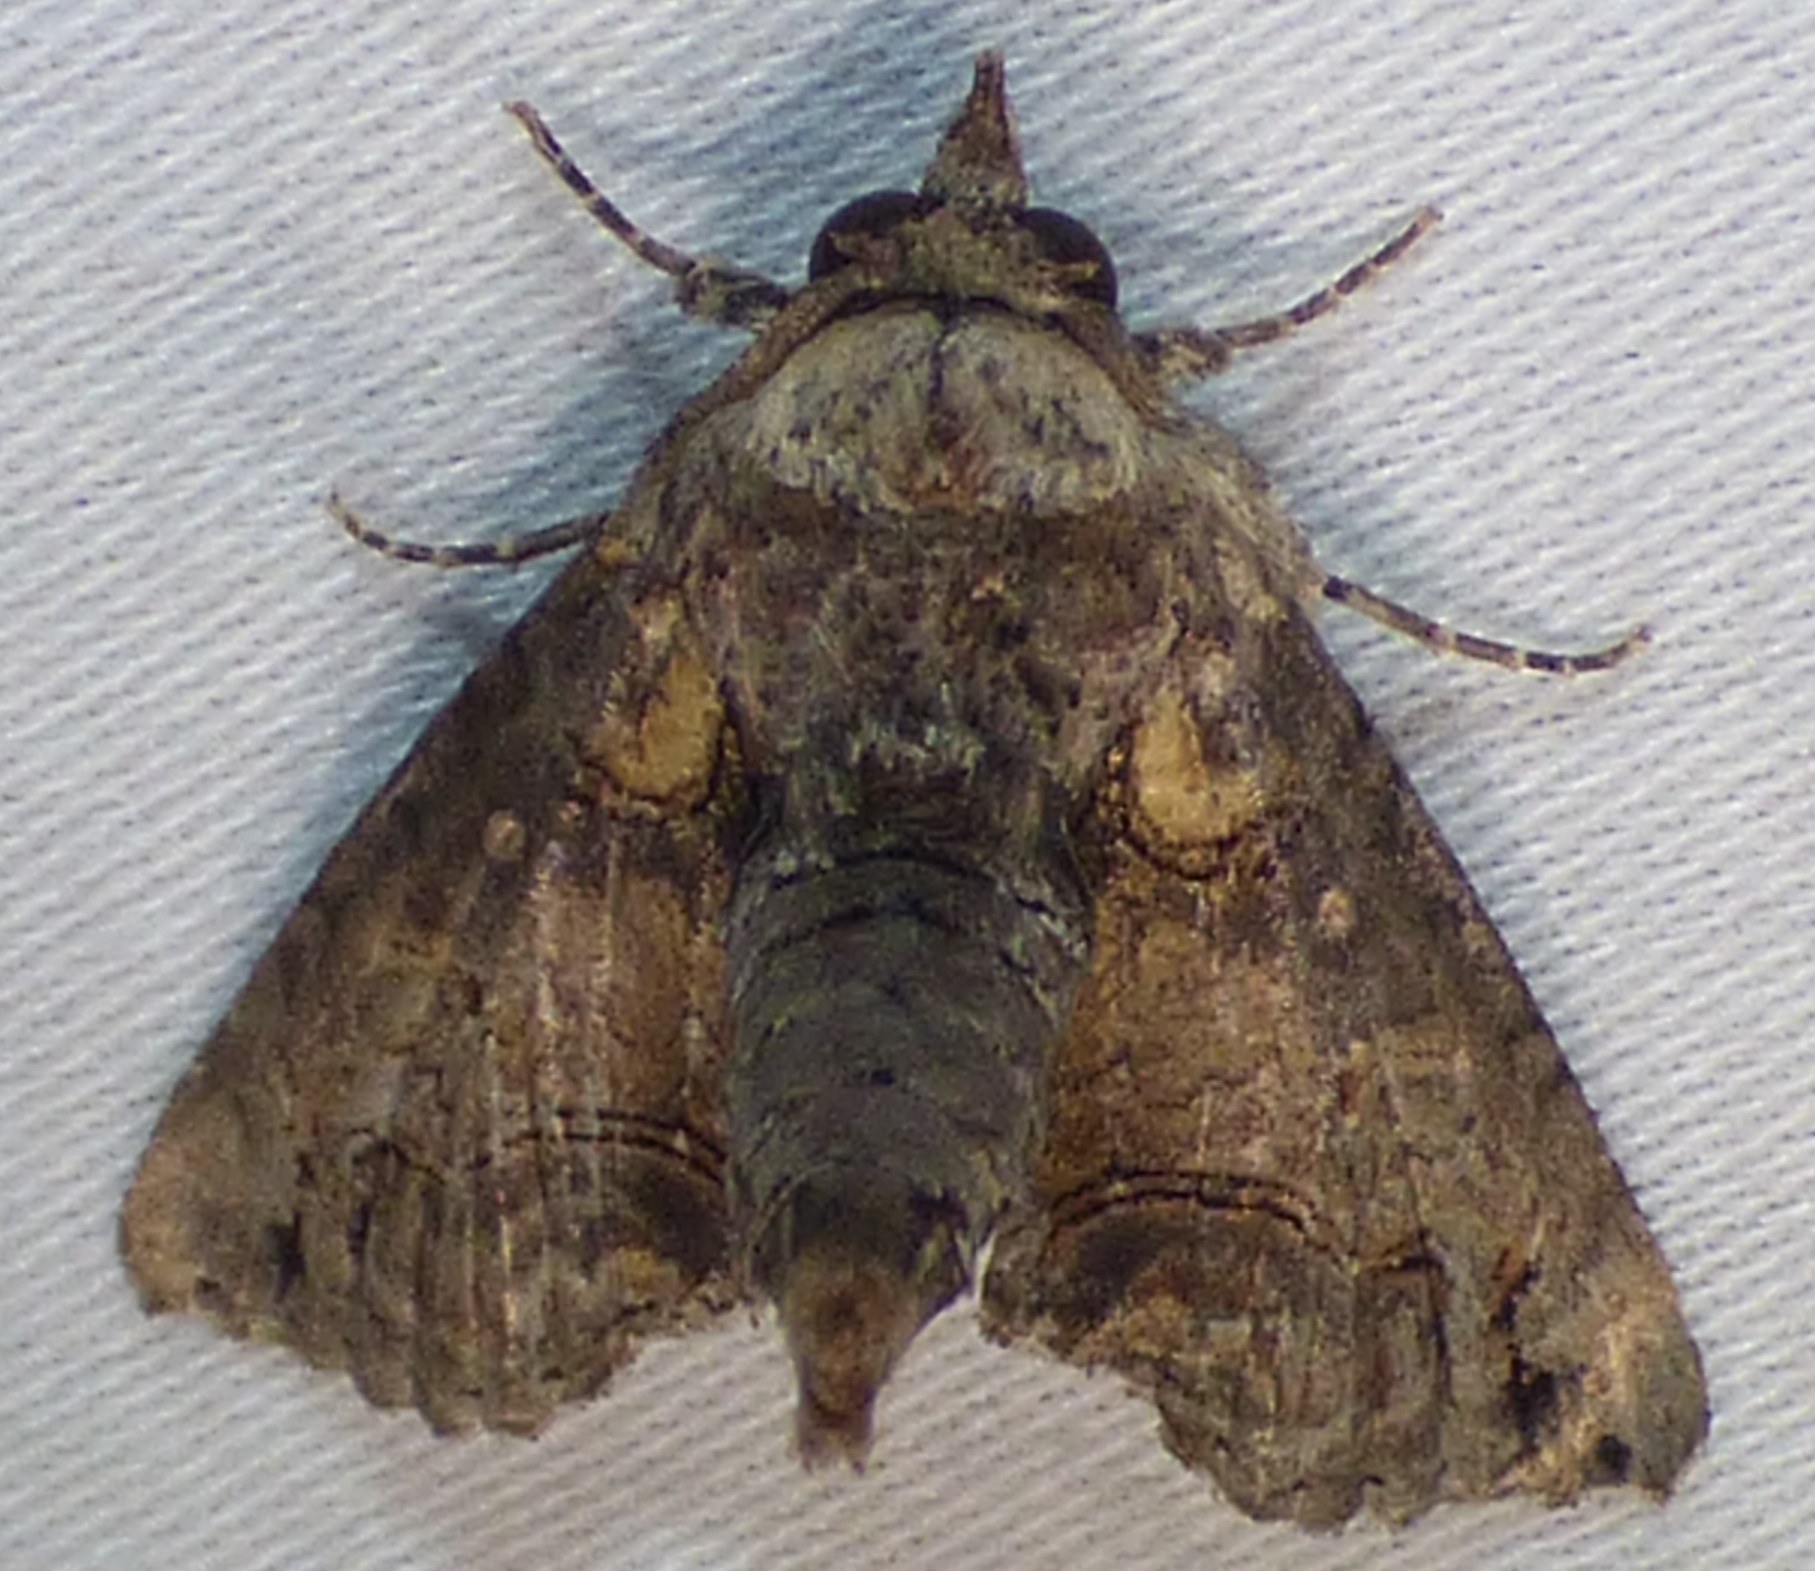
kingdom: Animalia
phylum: Arthropoda
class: Insecta
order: Lepidoptera
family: Euteliidae
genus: Paectes
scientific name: Paectes abrostoloides
